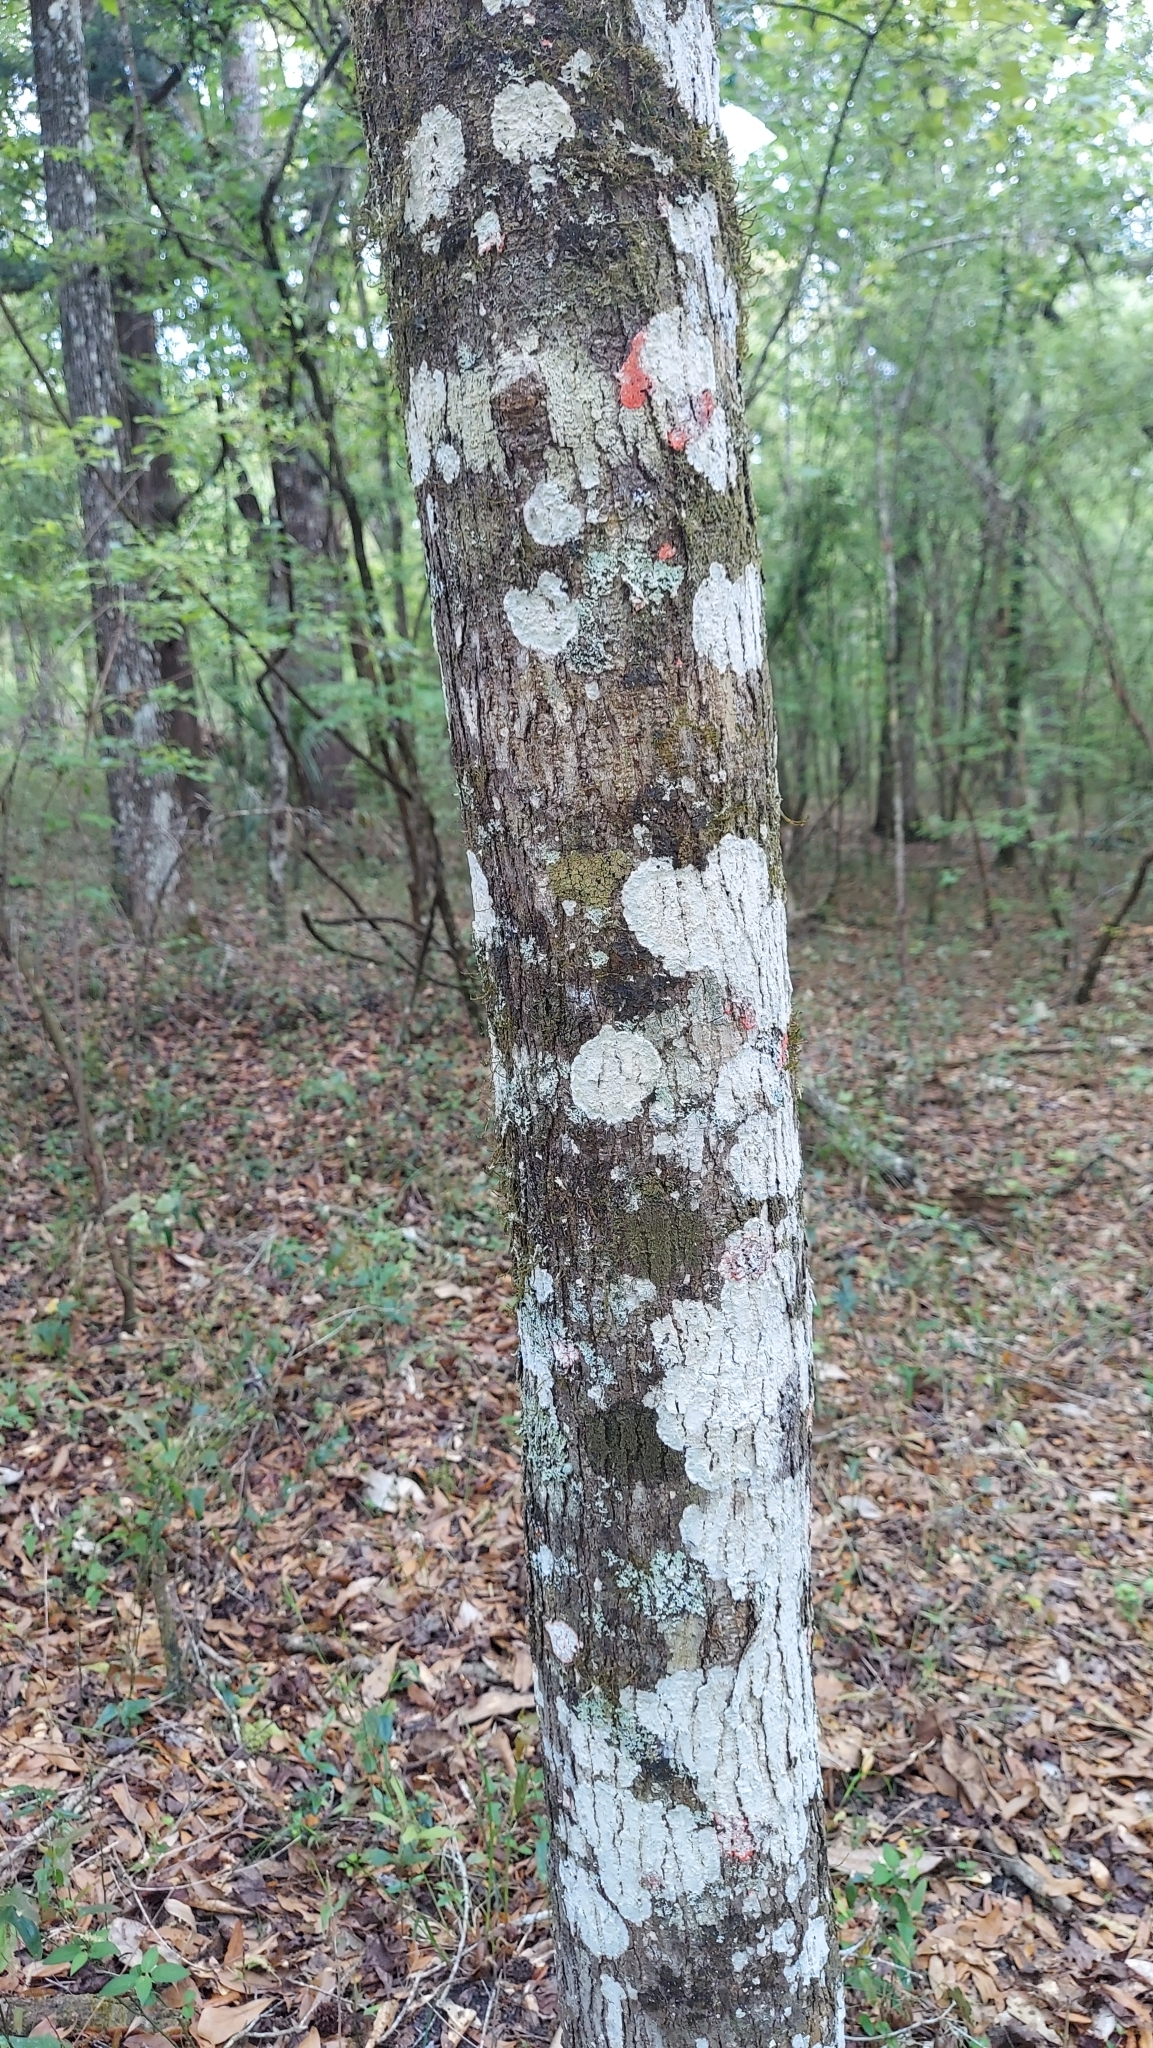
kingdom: Plantae
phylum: Tracheophyta
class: Magnoliopsida
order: Rosales
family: Moraceae
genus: Morus
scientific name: Morus rubra
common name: Red mulberry
